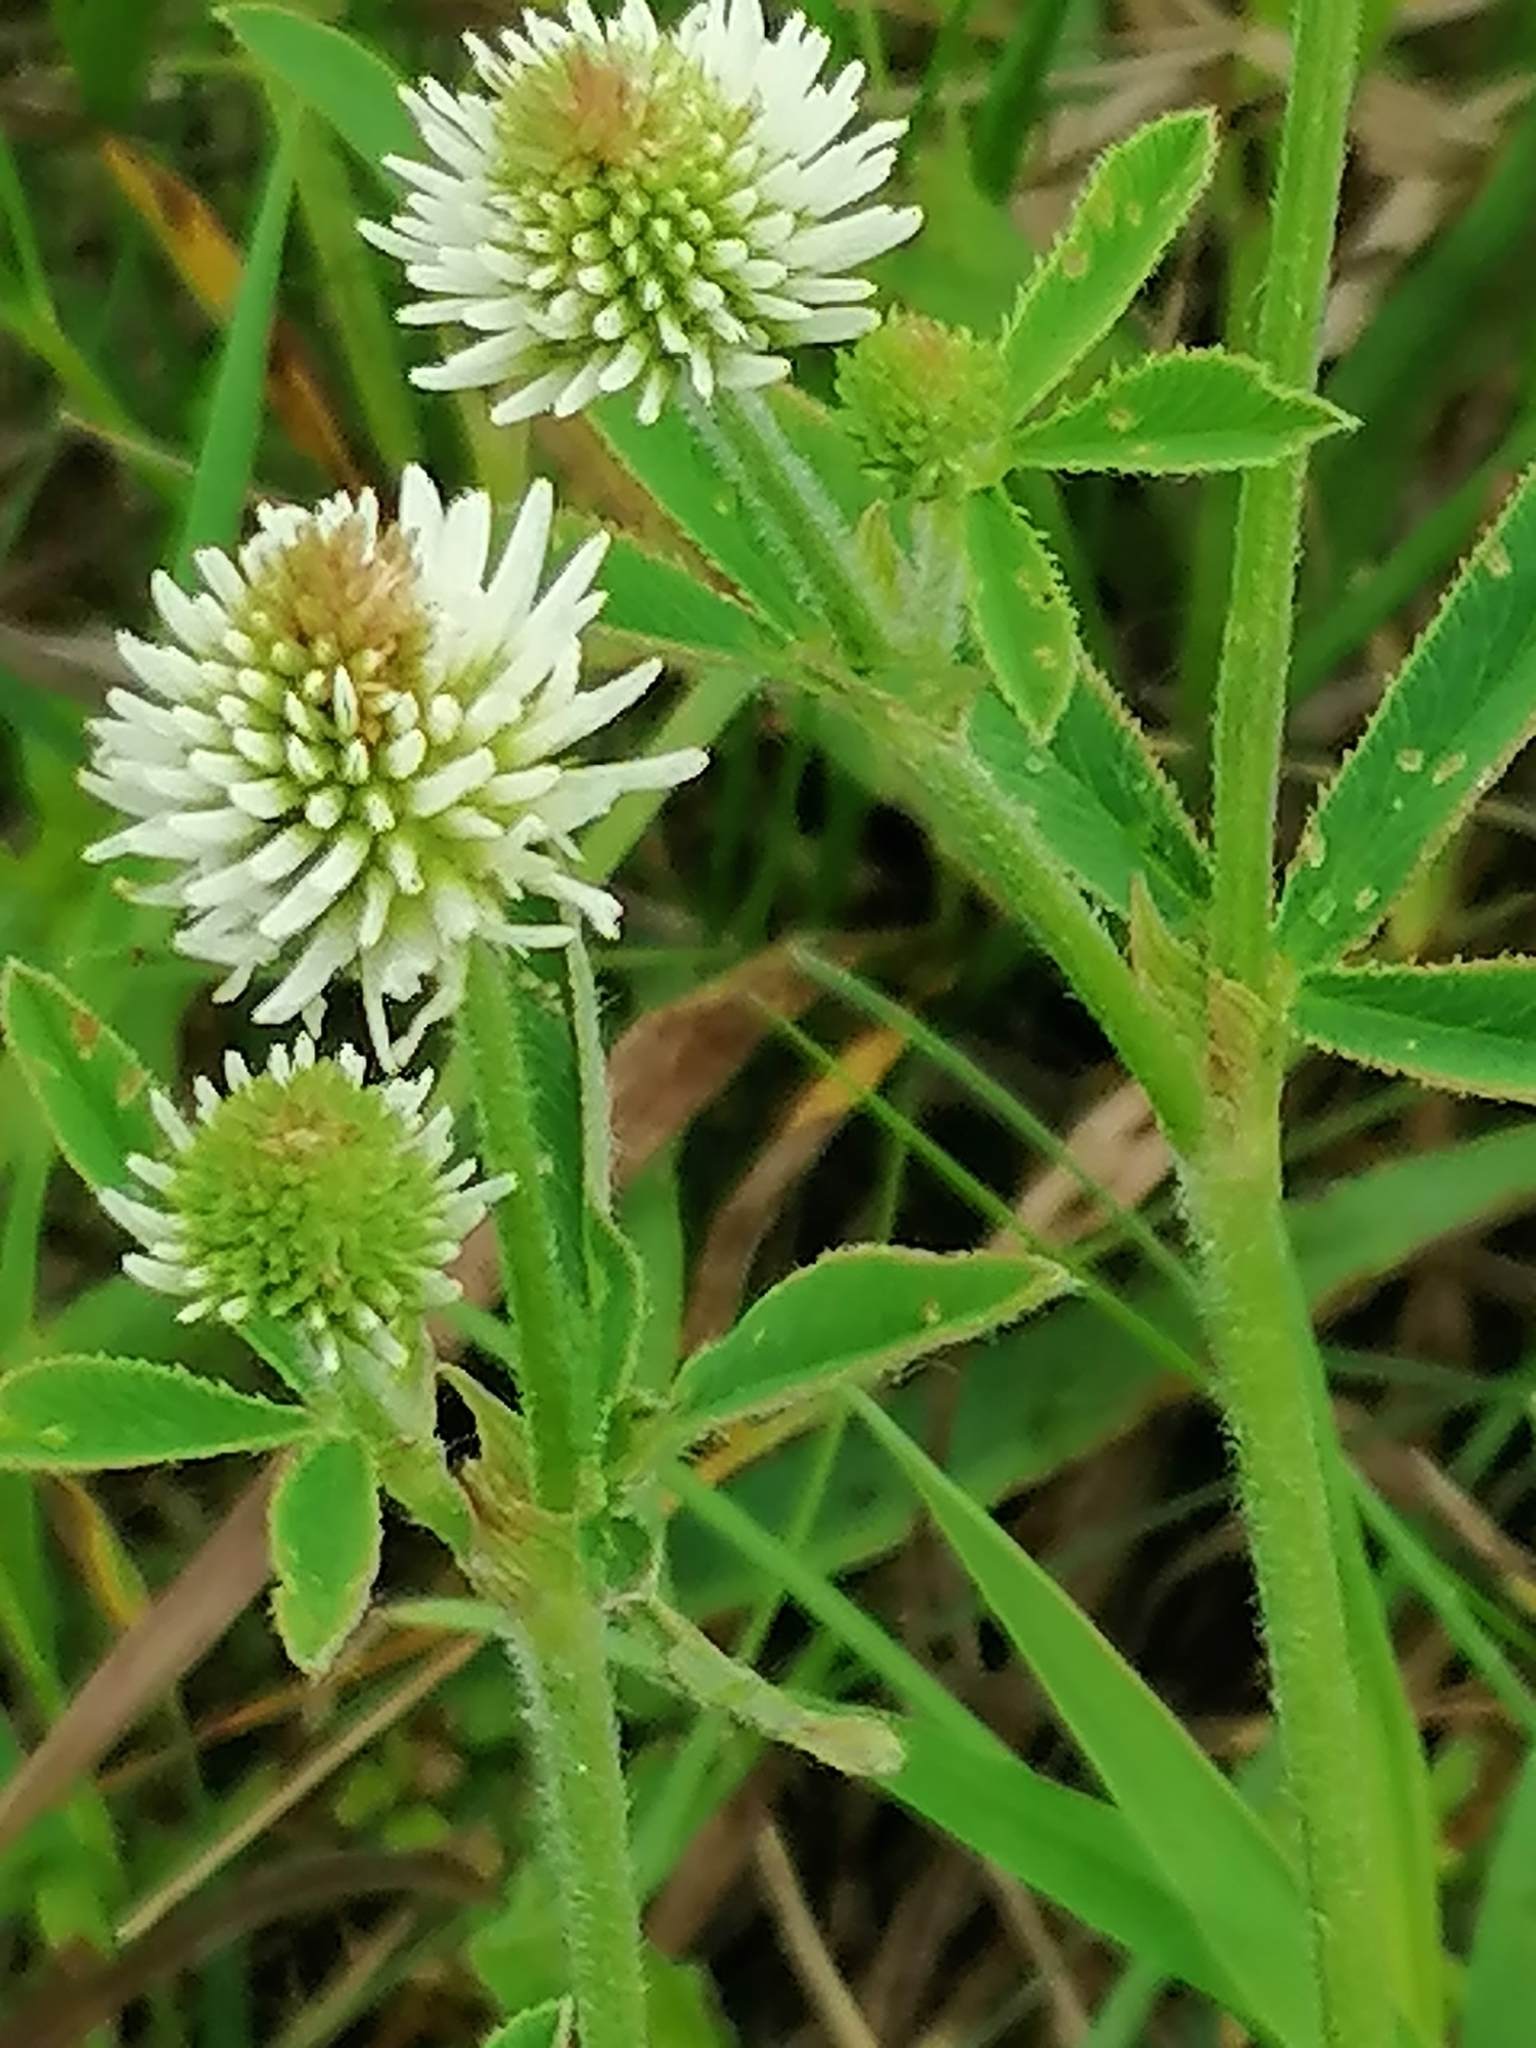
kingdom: Plantae
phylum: Tracheophyta
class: Magnoliopsida
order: Fabales
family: Fabaceae
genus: Trifolium
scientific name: Trifolium montanum
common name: Mountain clover
